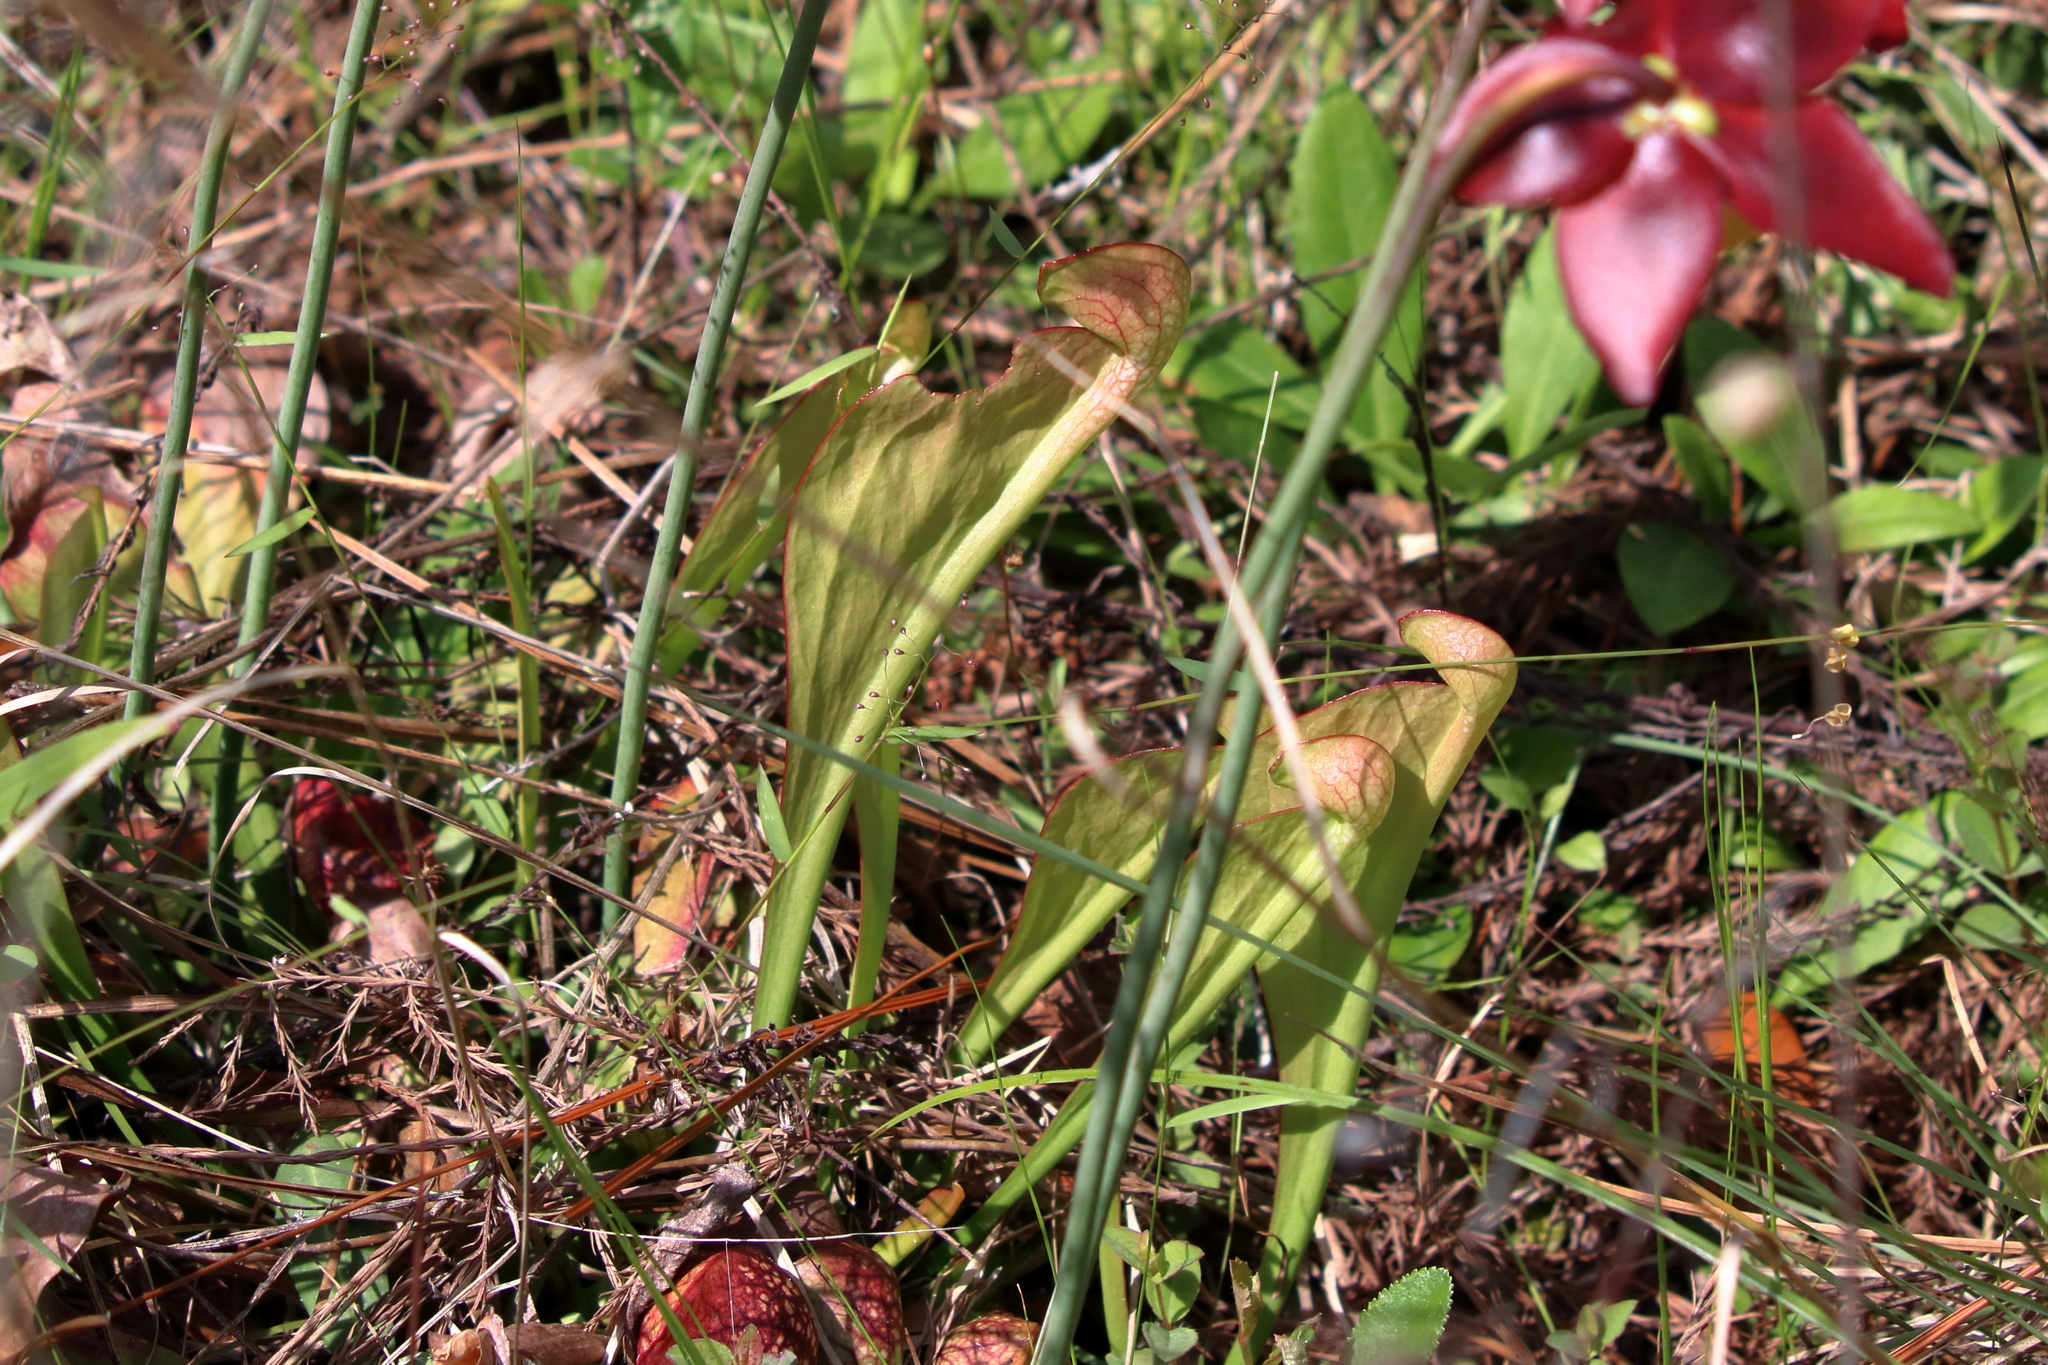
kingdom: Plantae
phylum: Tracheophyta
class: Magnoliopsida
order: Ericales
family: Sarraceniaceae
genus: Sarracenia
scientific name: Sarracenia psittacina
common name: Parrot pitcherplant
